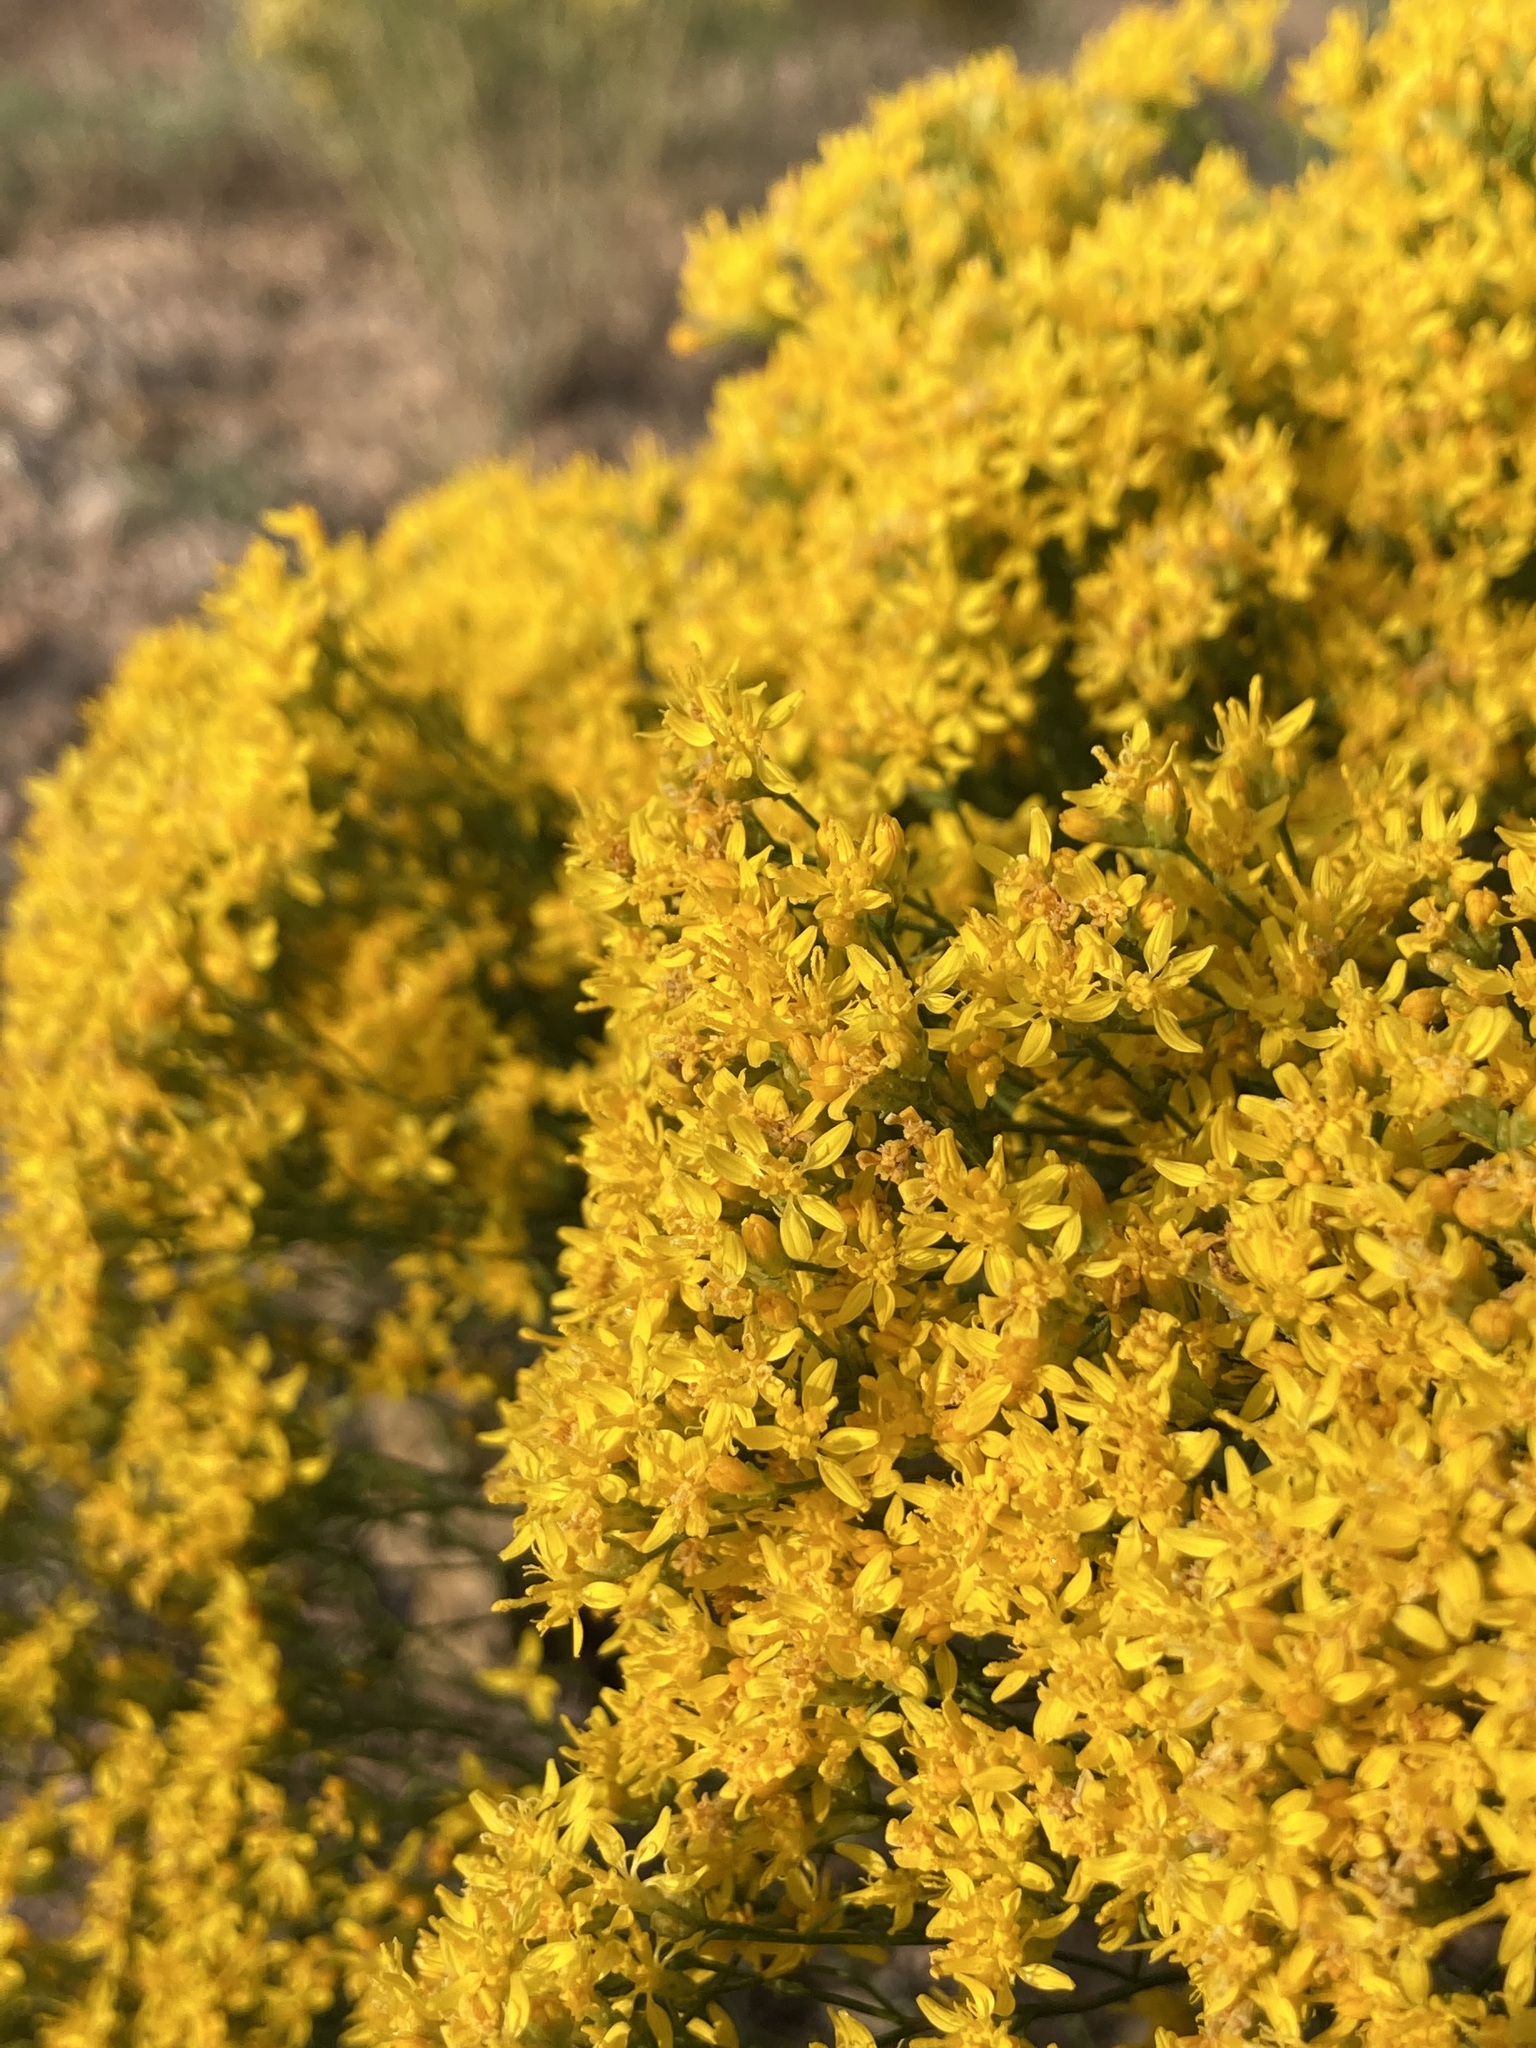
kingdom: Plantae
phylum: Tracheophyta
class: Magnoliopsida
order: Asterales
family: Asteraceae
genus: Gutierrezia
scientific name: Gutierrezia sarothrae
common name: Broom snakeweed
